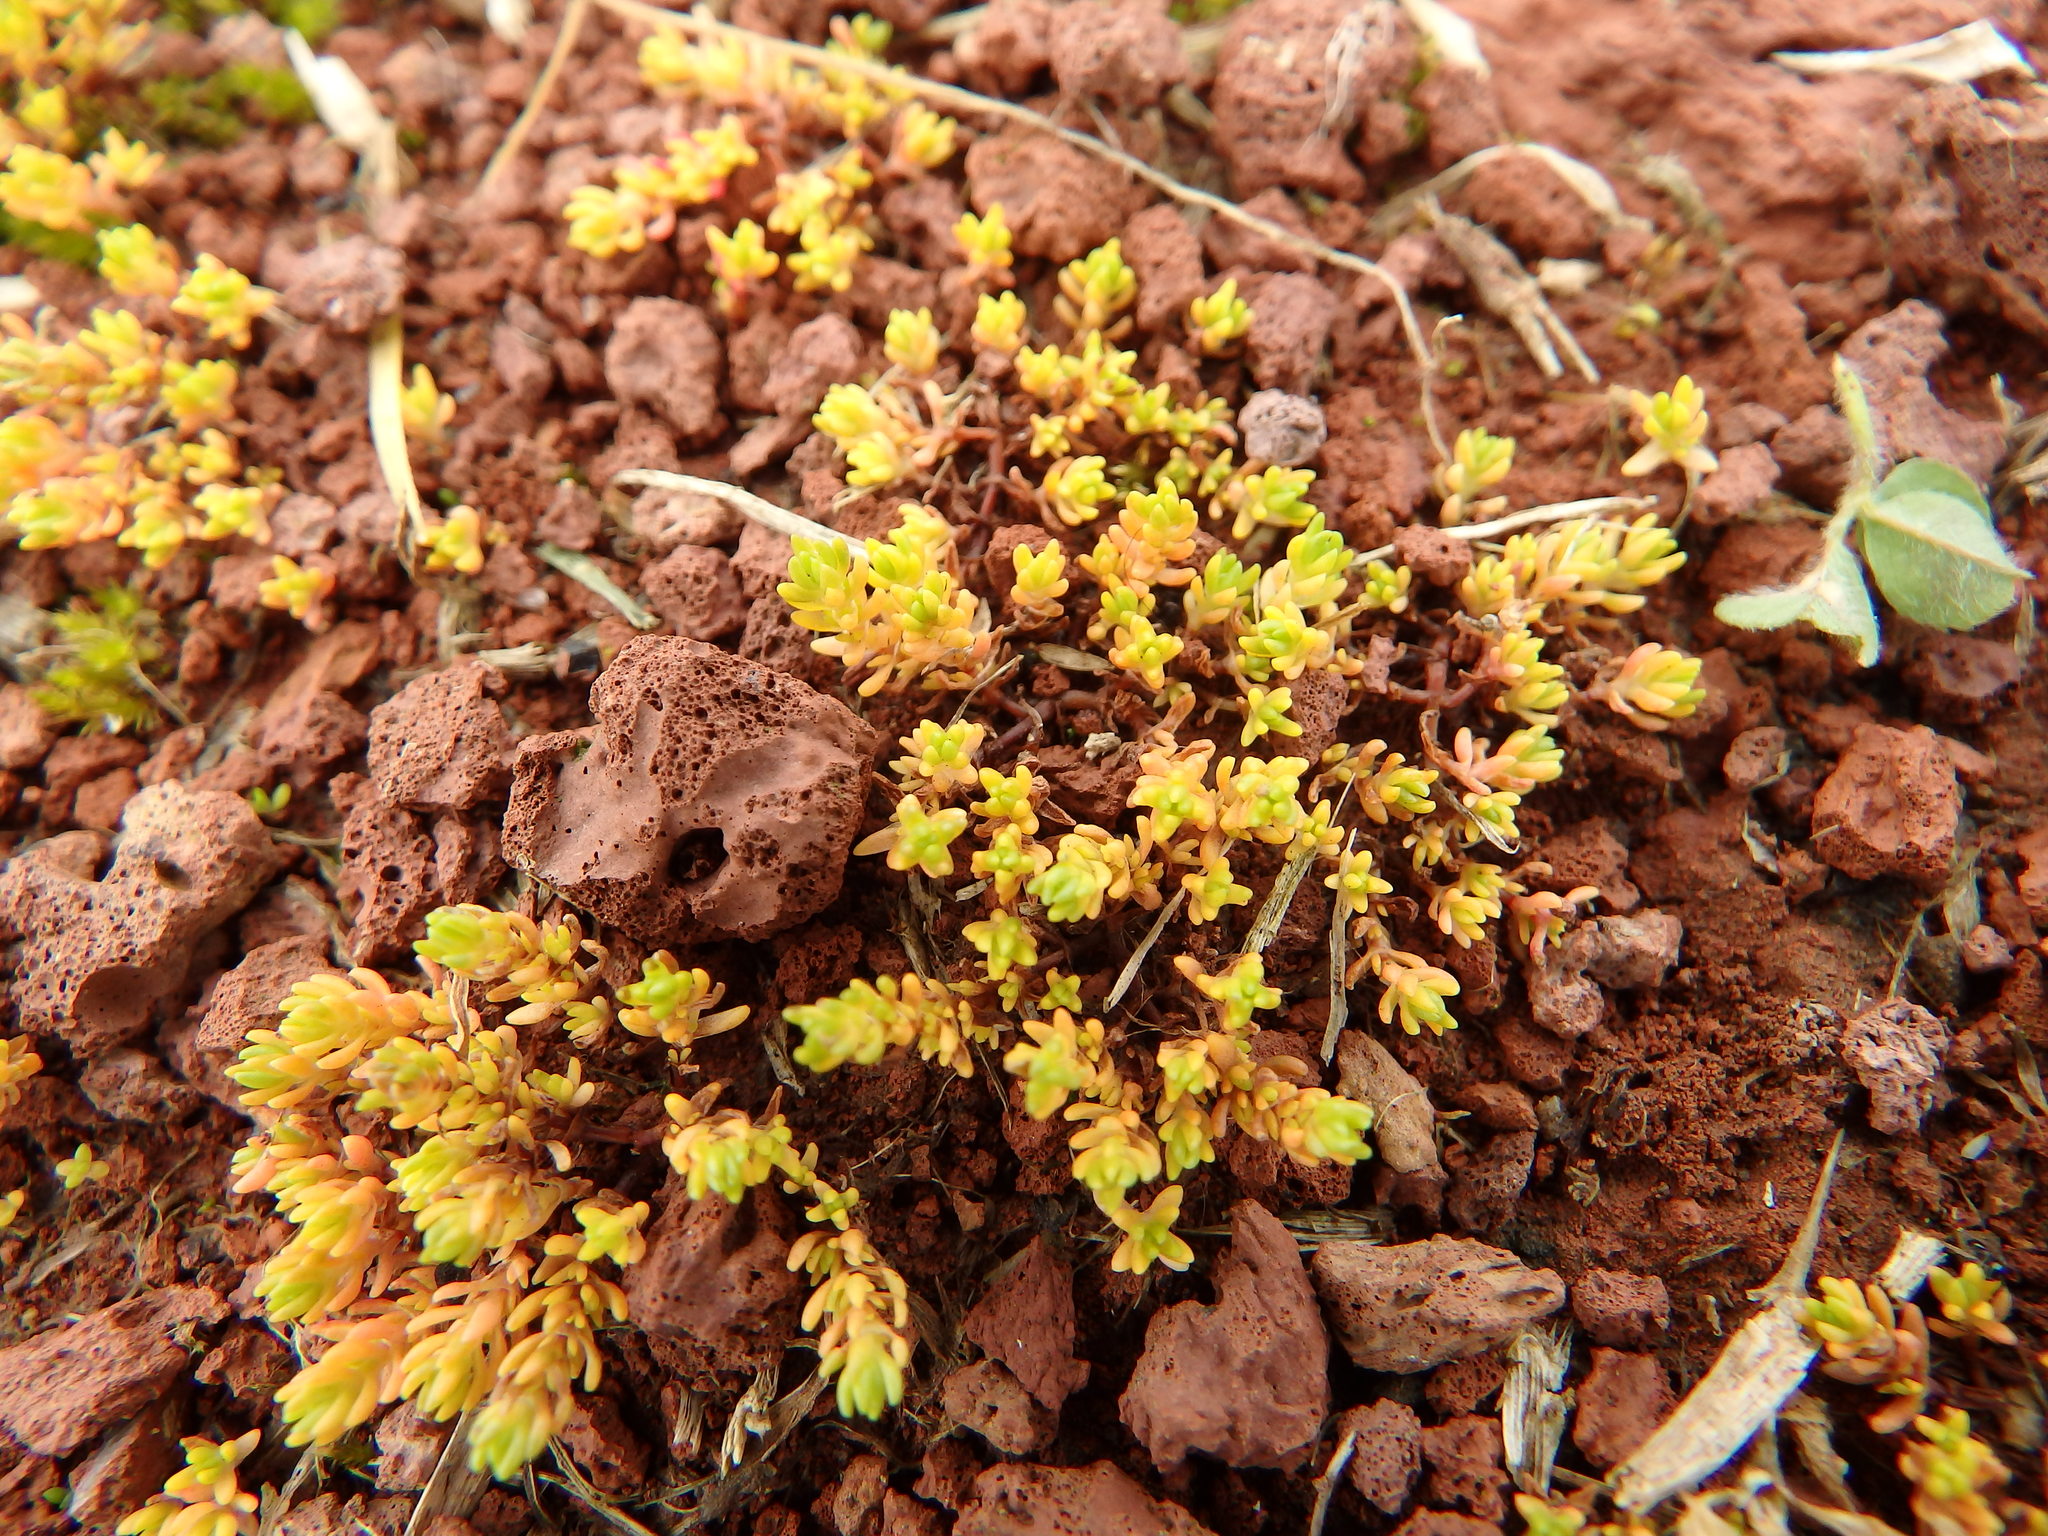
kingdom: Plantae
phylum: Tracheophyta
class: Magnoliopsida
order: Saxifragales
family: Crassulaceae
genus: Crassula
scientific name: Crassula tillaea
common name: Mossy stonecrop
